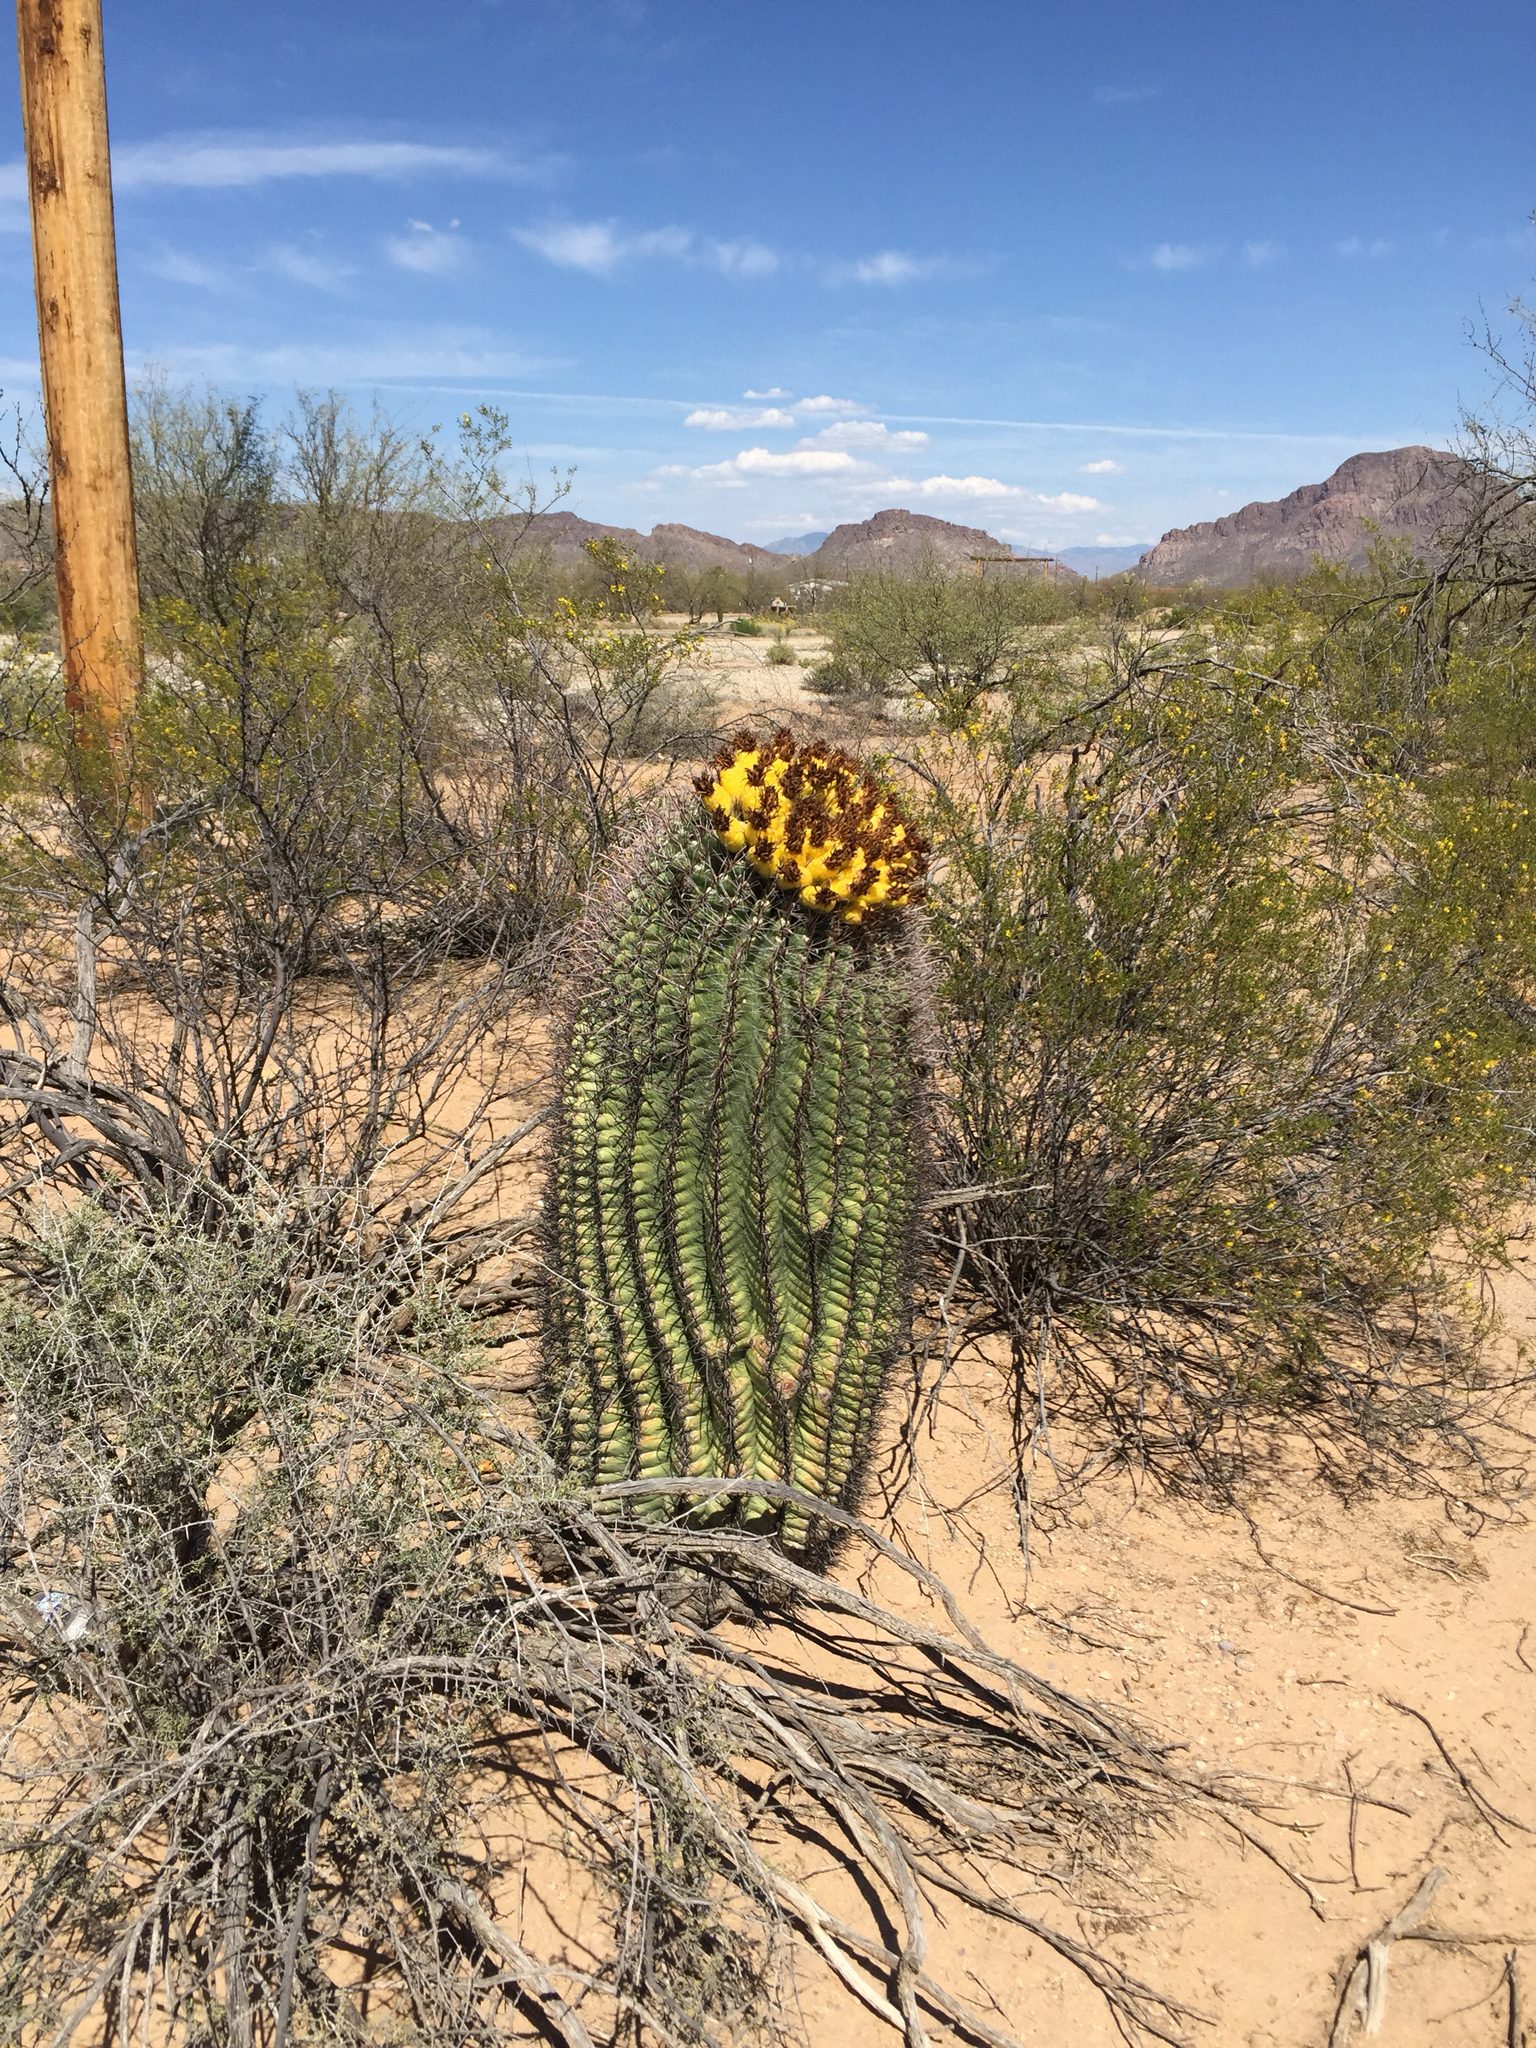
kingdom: Plantae
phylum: Tracheophyta
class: Magnoliopsida
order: Caryophyllales
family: Cactaceae
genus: Ferocactus
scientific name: Ferocactus wislizeni
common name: Candy barrel cactus
